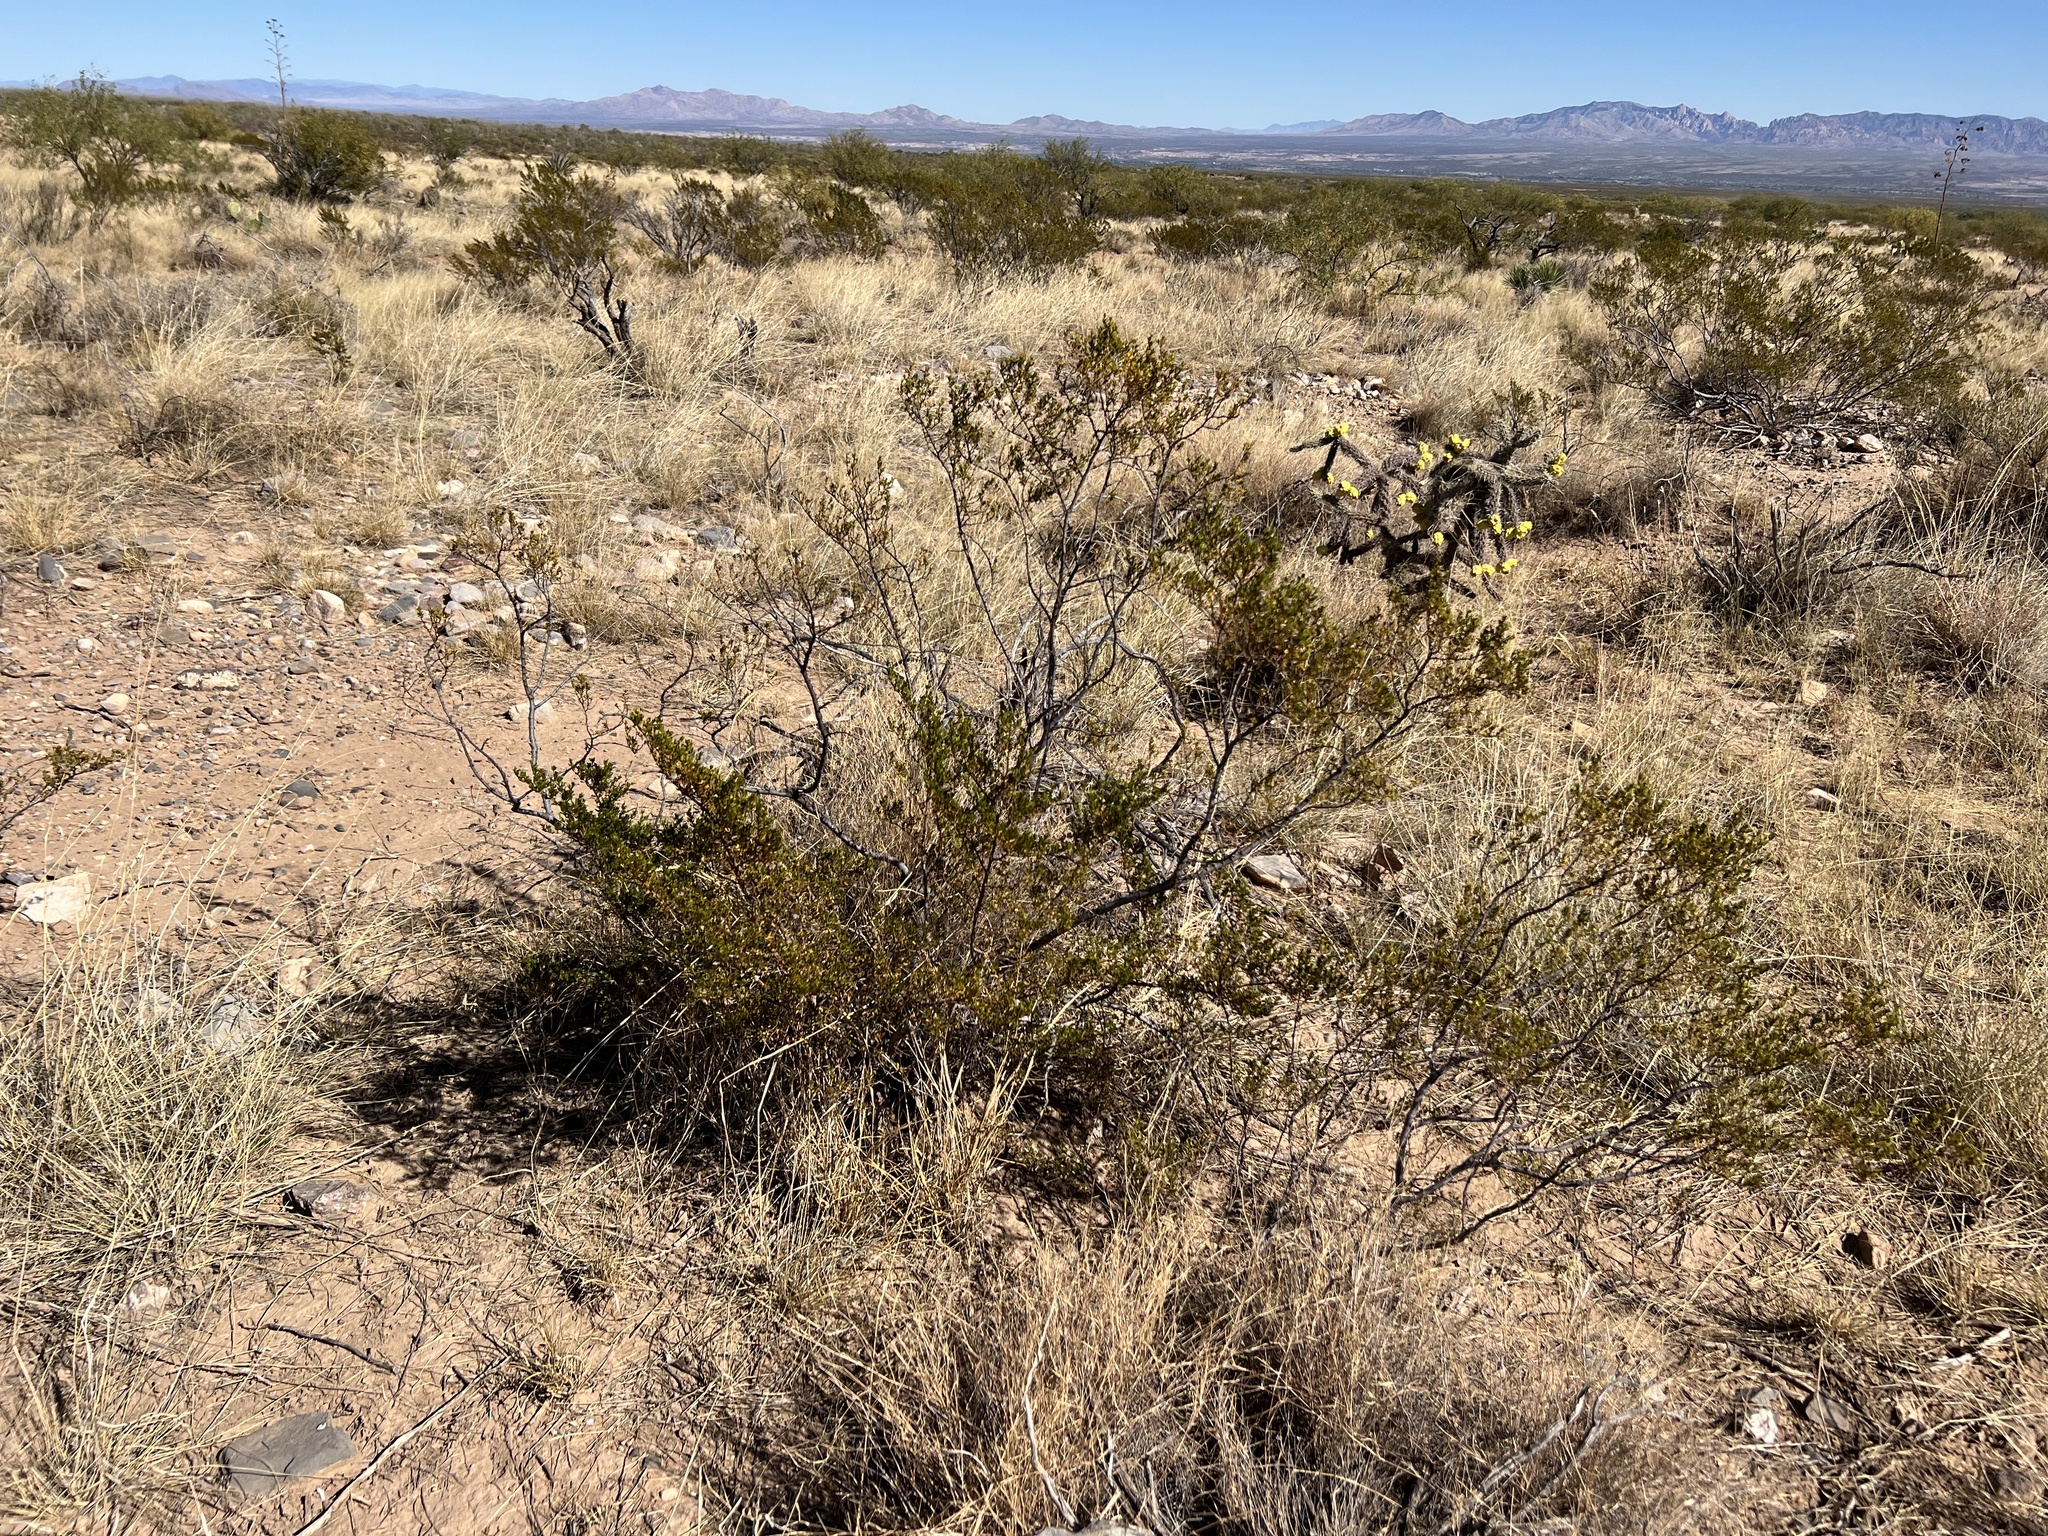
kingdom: Plantae
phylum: Tracheophyta
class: Magnoliopsida
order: Zygophyllales
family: Zygophyllaceae
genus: Larrea
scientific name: Larrea tridentata
